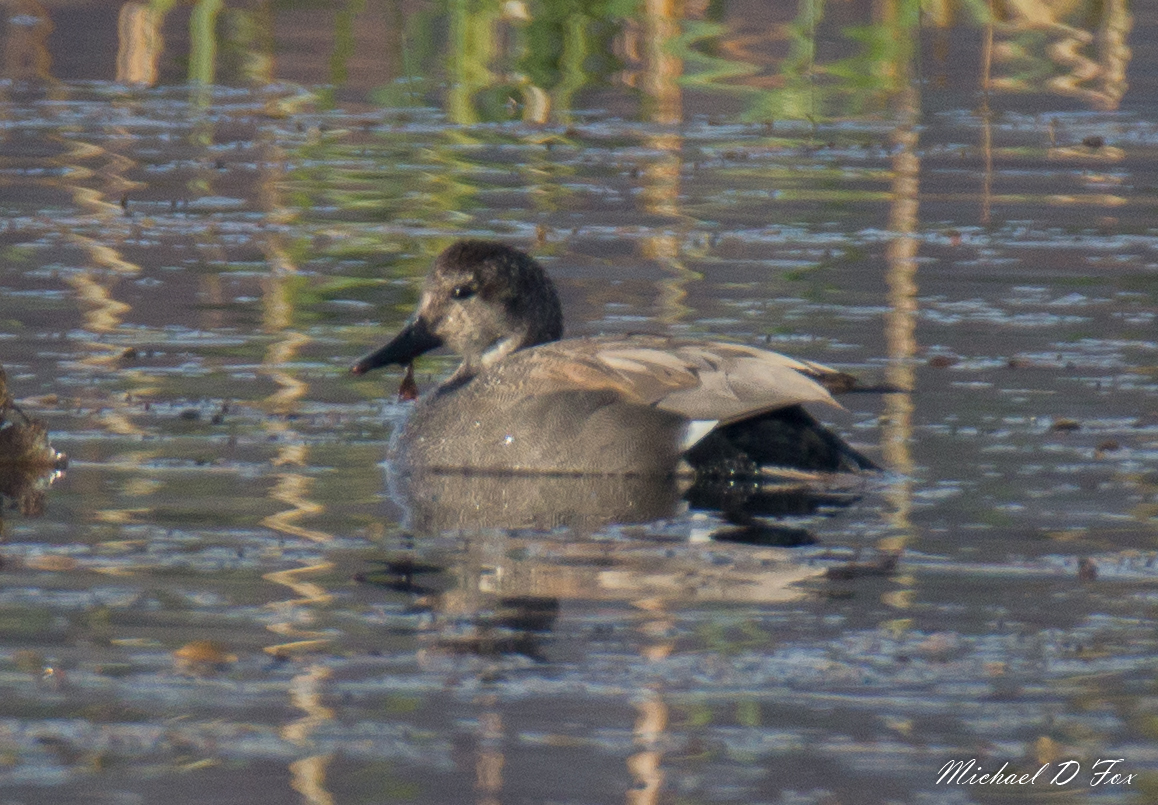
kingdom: Animalia
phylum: Chordata
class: Aves
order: Anseriformes
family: Anatidae
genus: Mareca
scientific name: Mareca strepera
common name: Gadwall
